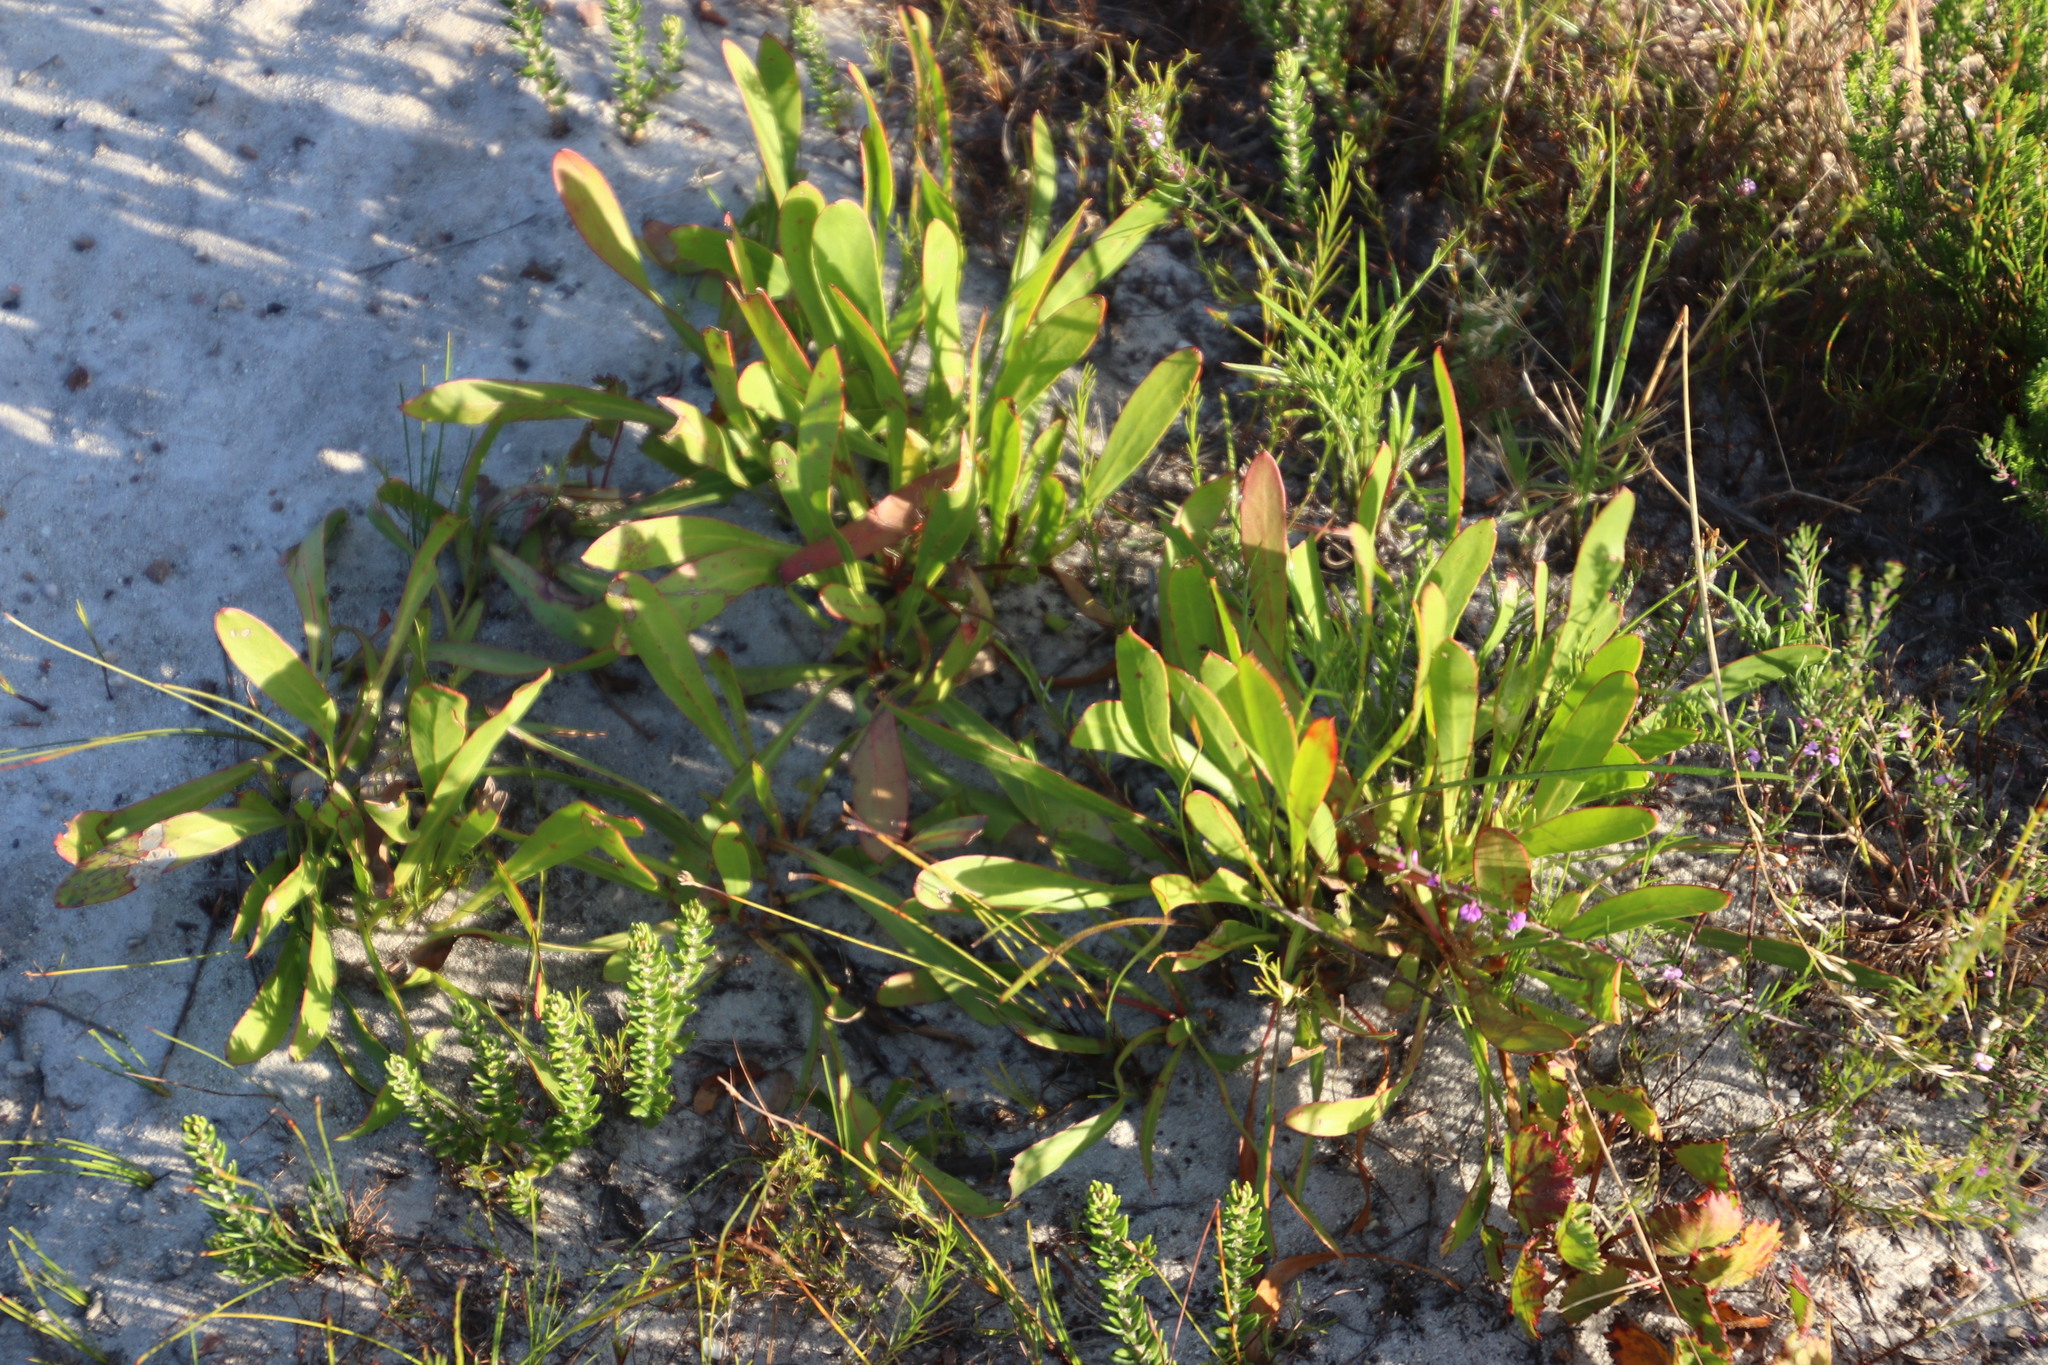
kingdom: Plantae
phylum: Tracheophyta
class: Magnoliopsida
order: Proteales
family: Proteaceae
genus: Protea
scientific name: Protea angustata
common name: Kleinmond sugarbush
